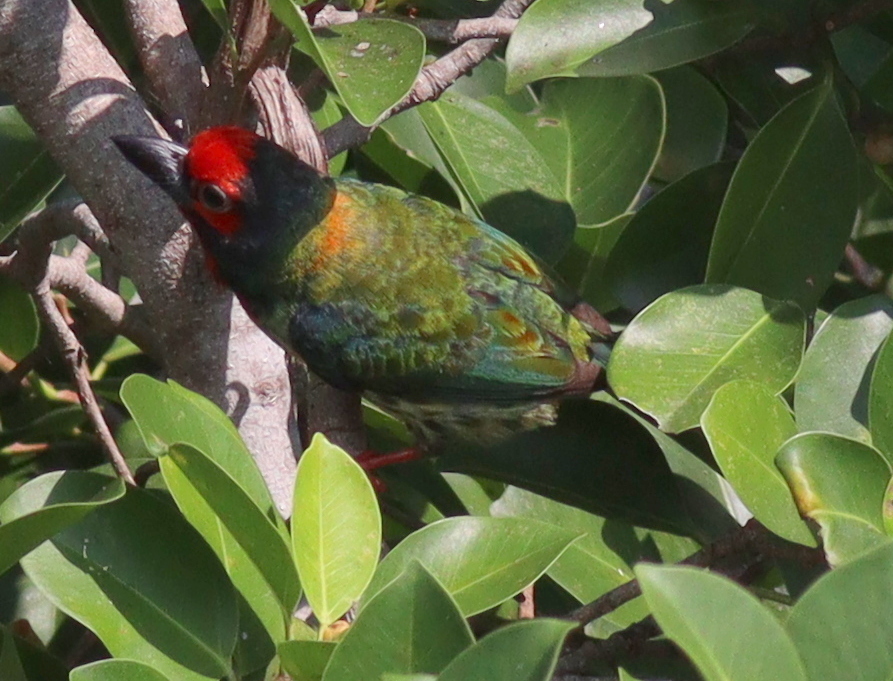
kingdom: Animalia
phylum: Chordata
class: Aves
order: Piciformes
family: Megalaimidae
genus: Psilopogon
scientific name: Psilopogon haemacephalus
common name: Coppersmith barbet
